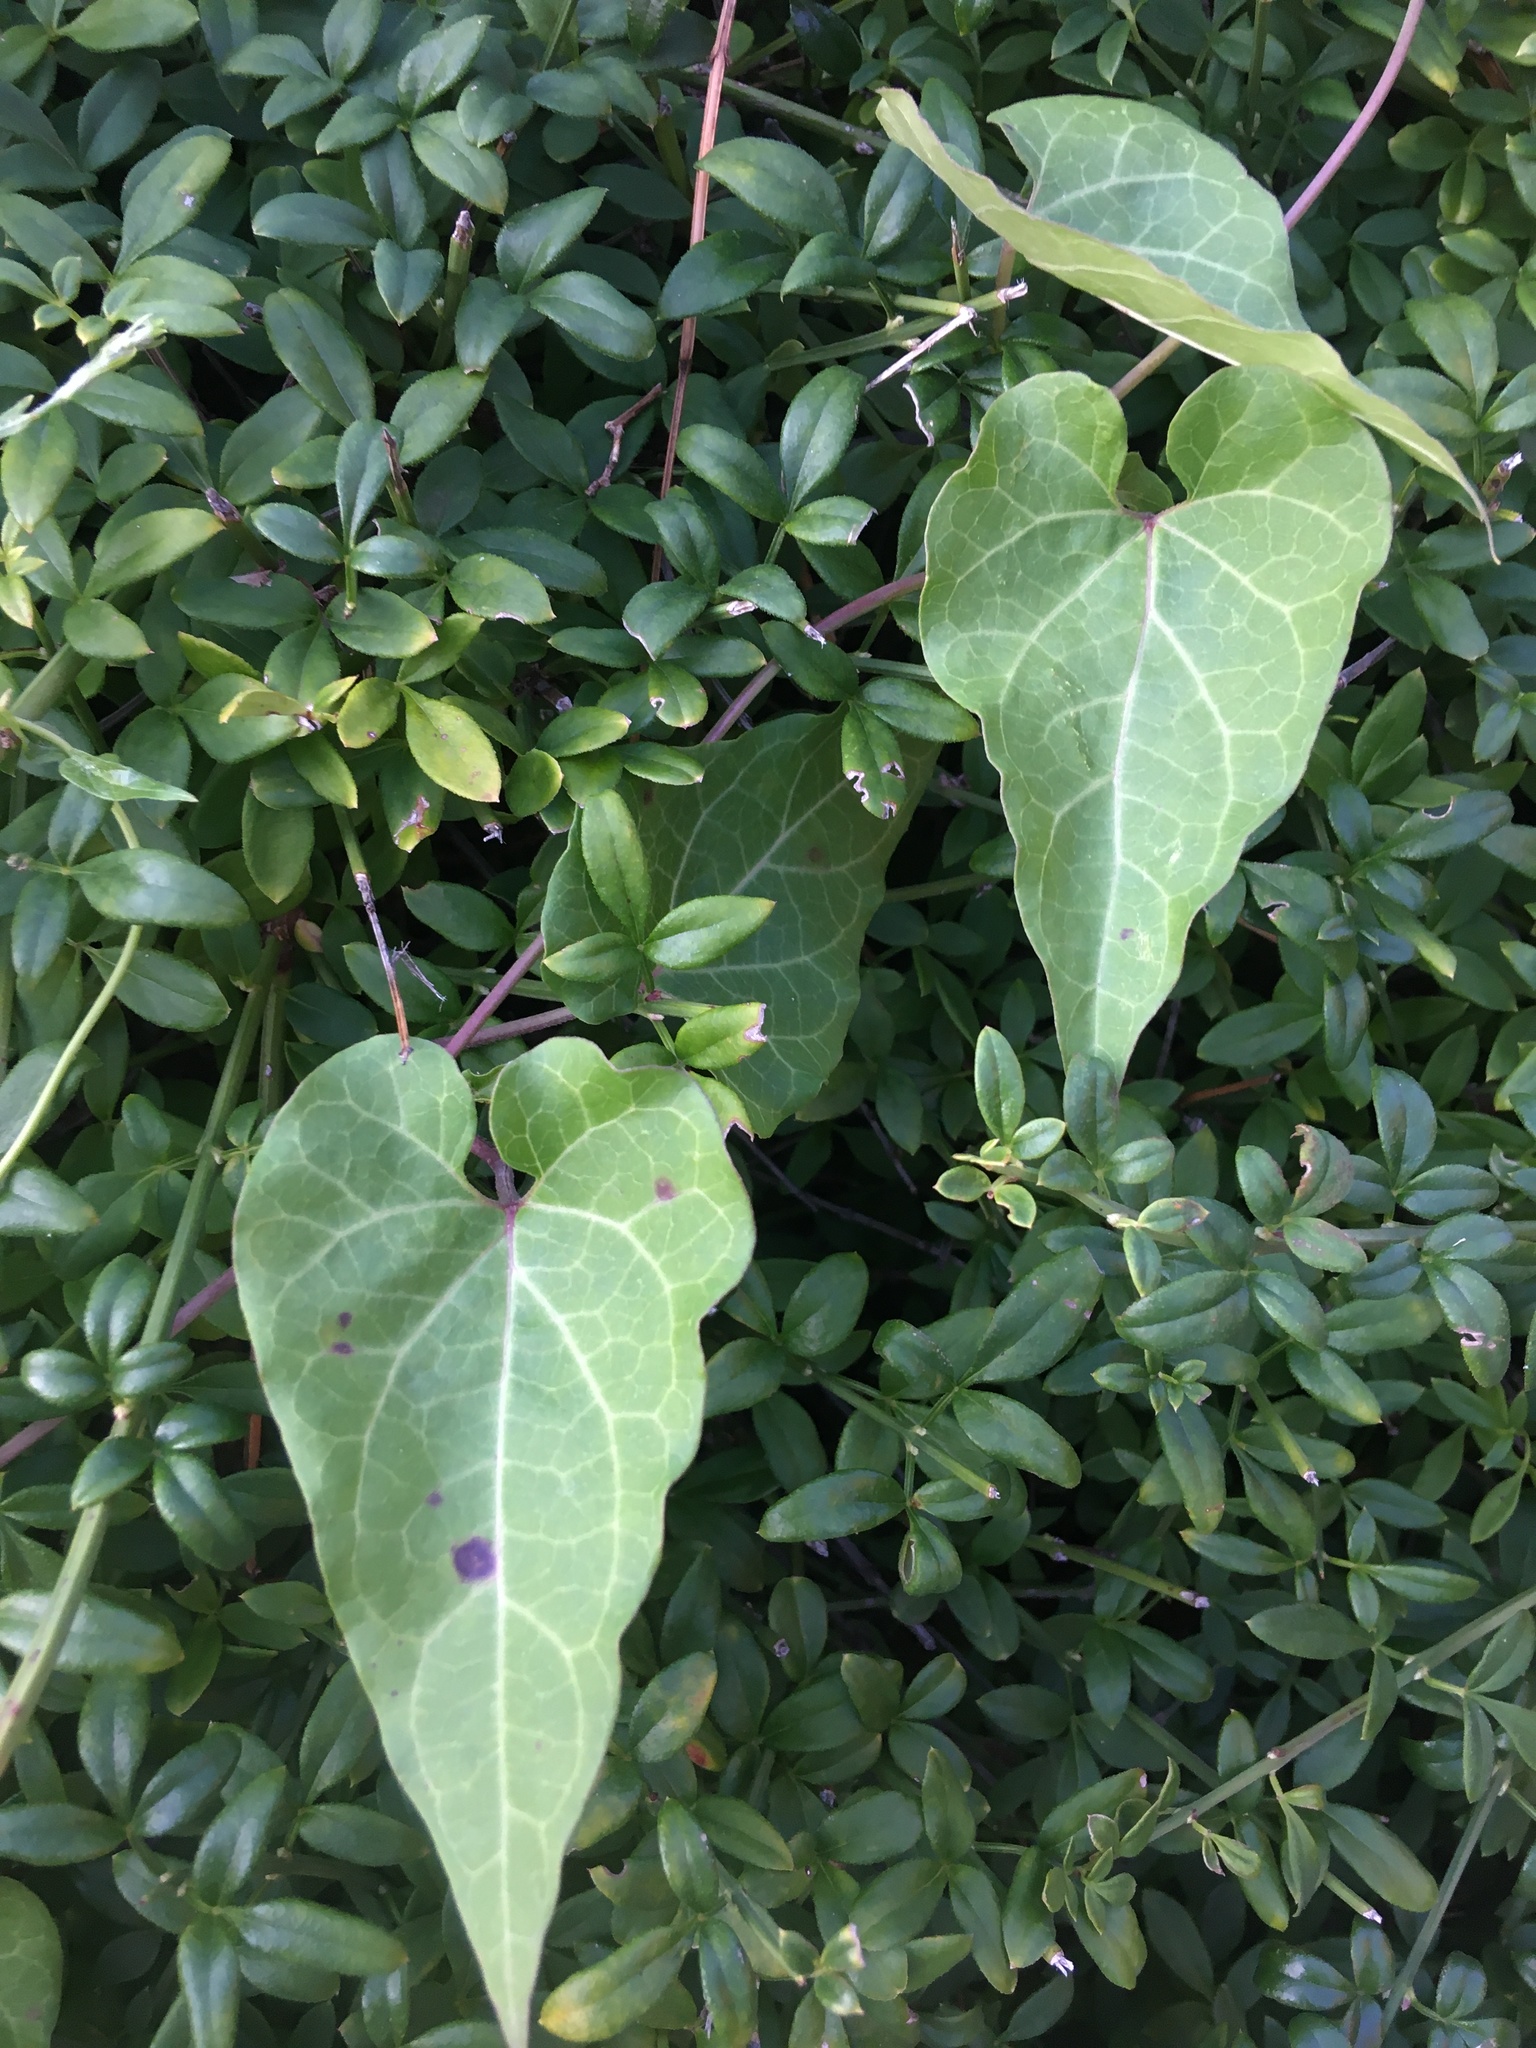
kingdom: Plantae
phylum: Tracheophyta
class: Magnoliopsida
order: Gentianales
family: Apocynaceae
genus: Cynanchum
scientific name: Cynanchum laeve
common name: Sandvine
